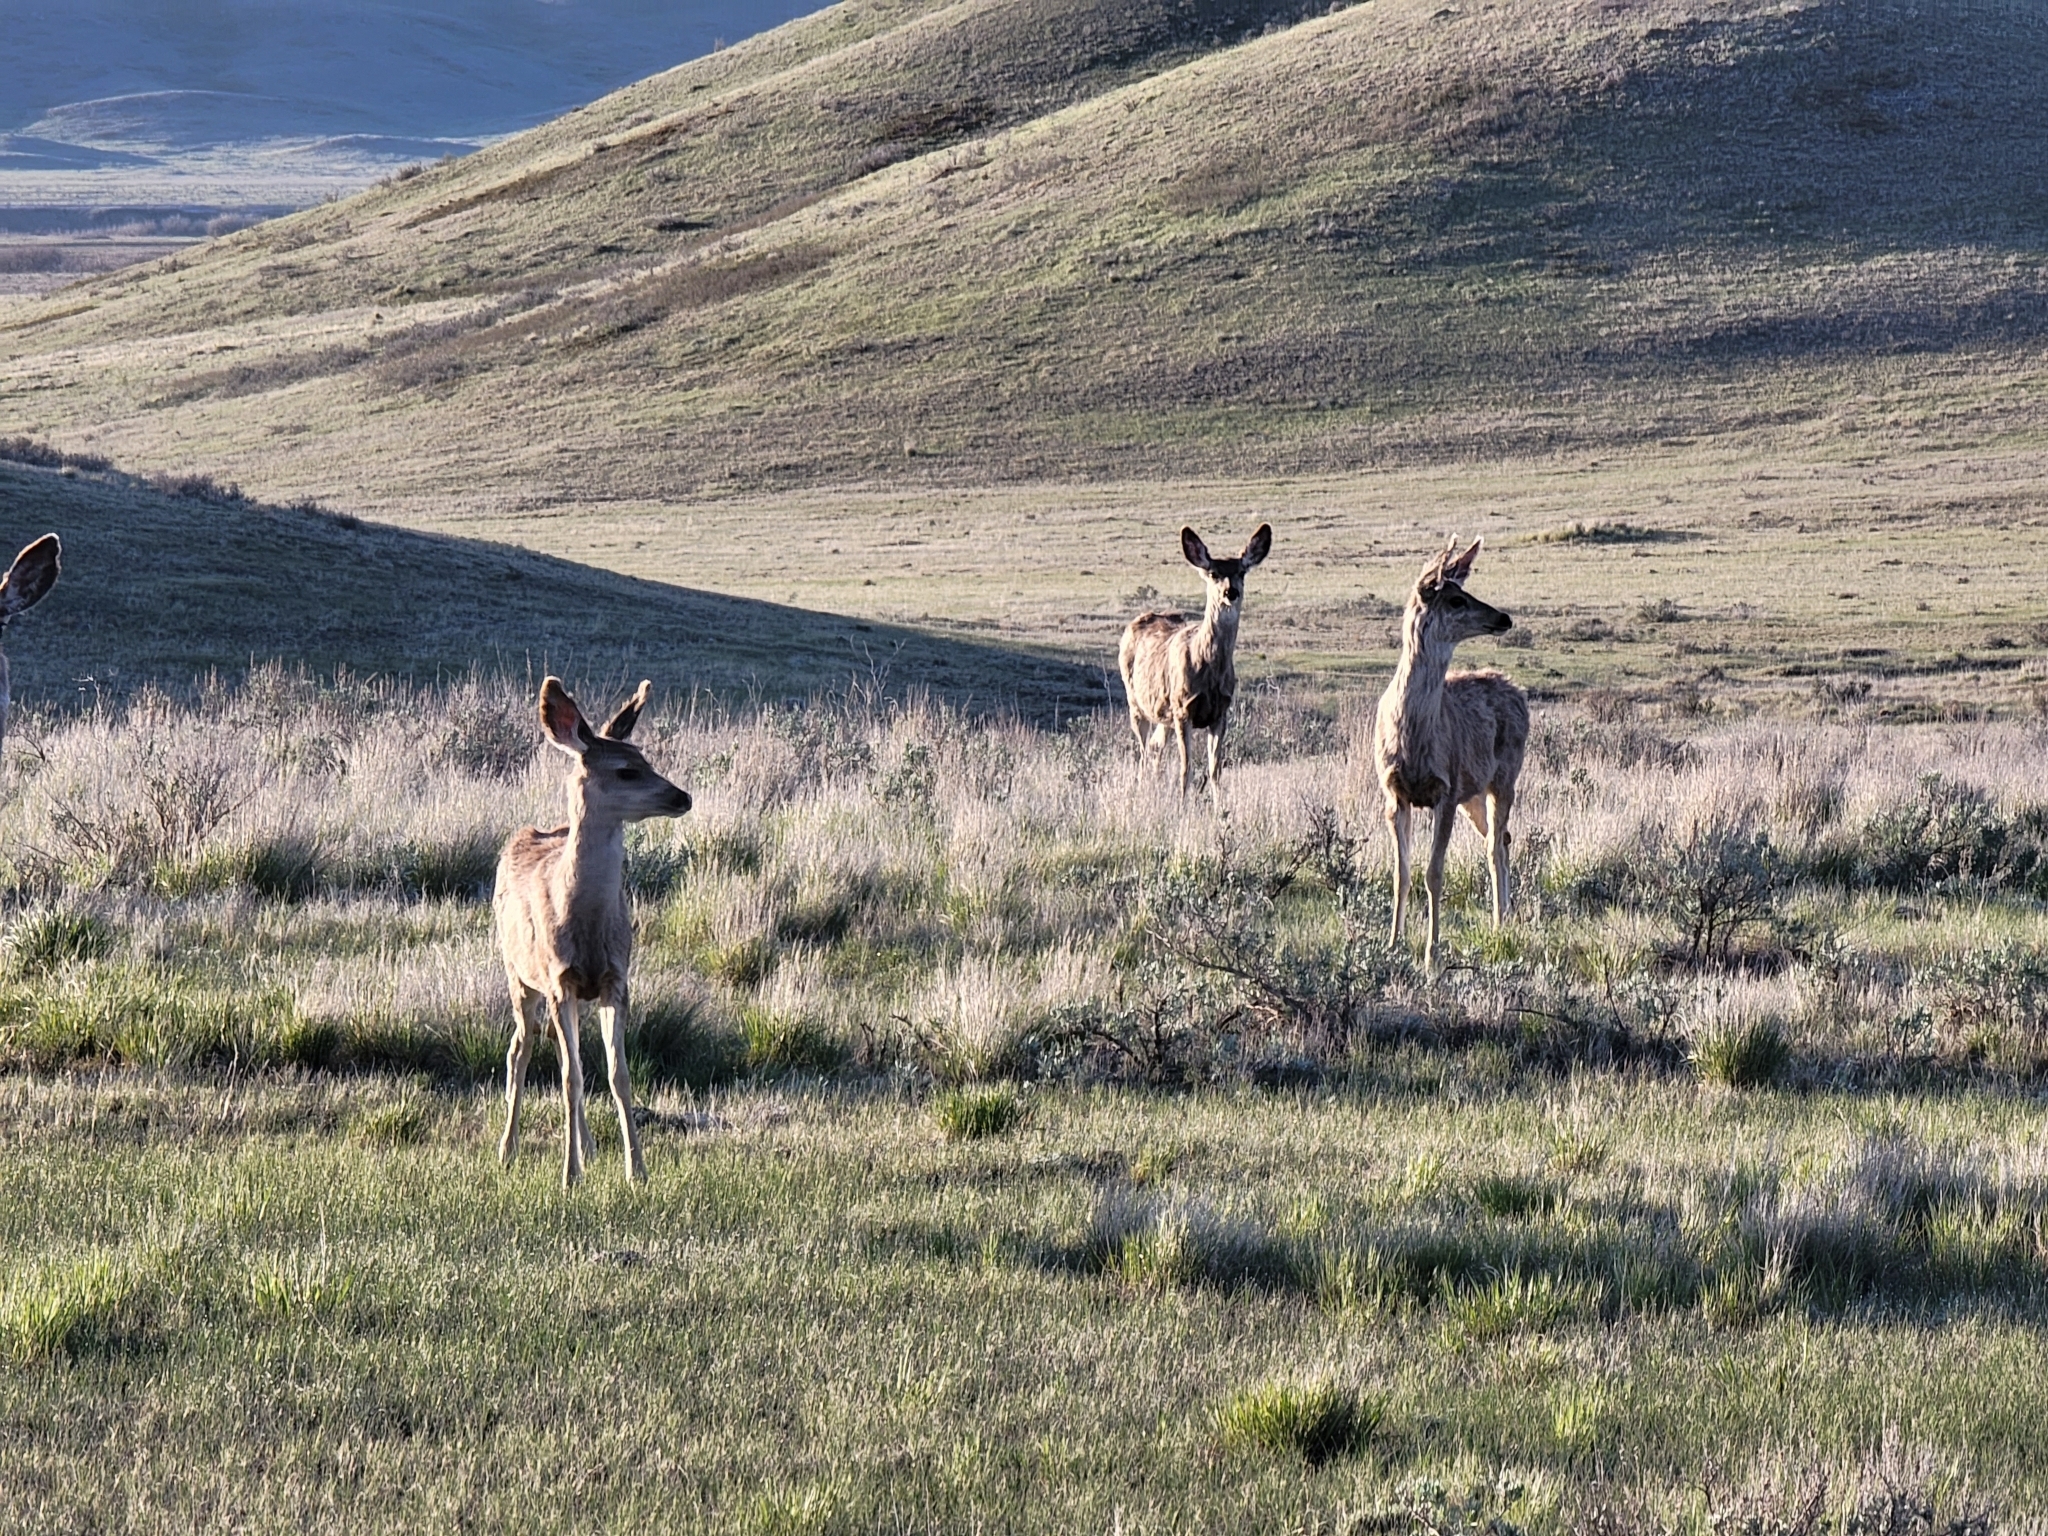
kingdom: Animalia
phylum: Chordata
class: Mammalia
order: Artiodactyla
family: Cervidae
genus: Odocoileus
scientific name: Odocoileus hemionus
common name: Mule deer
